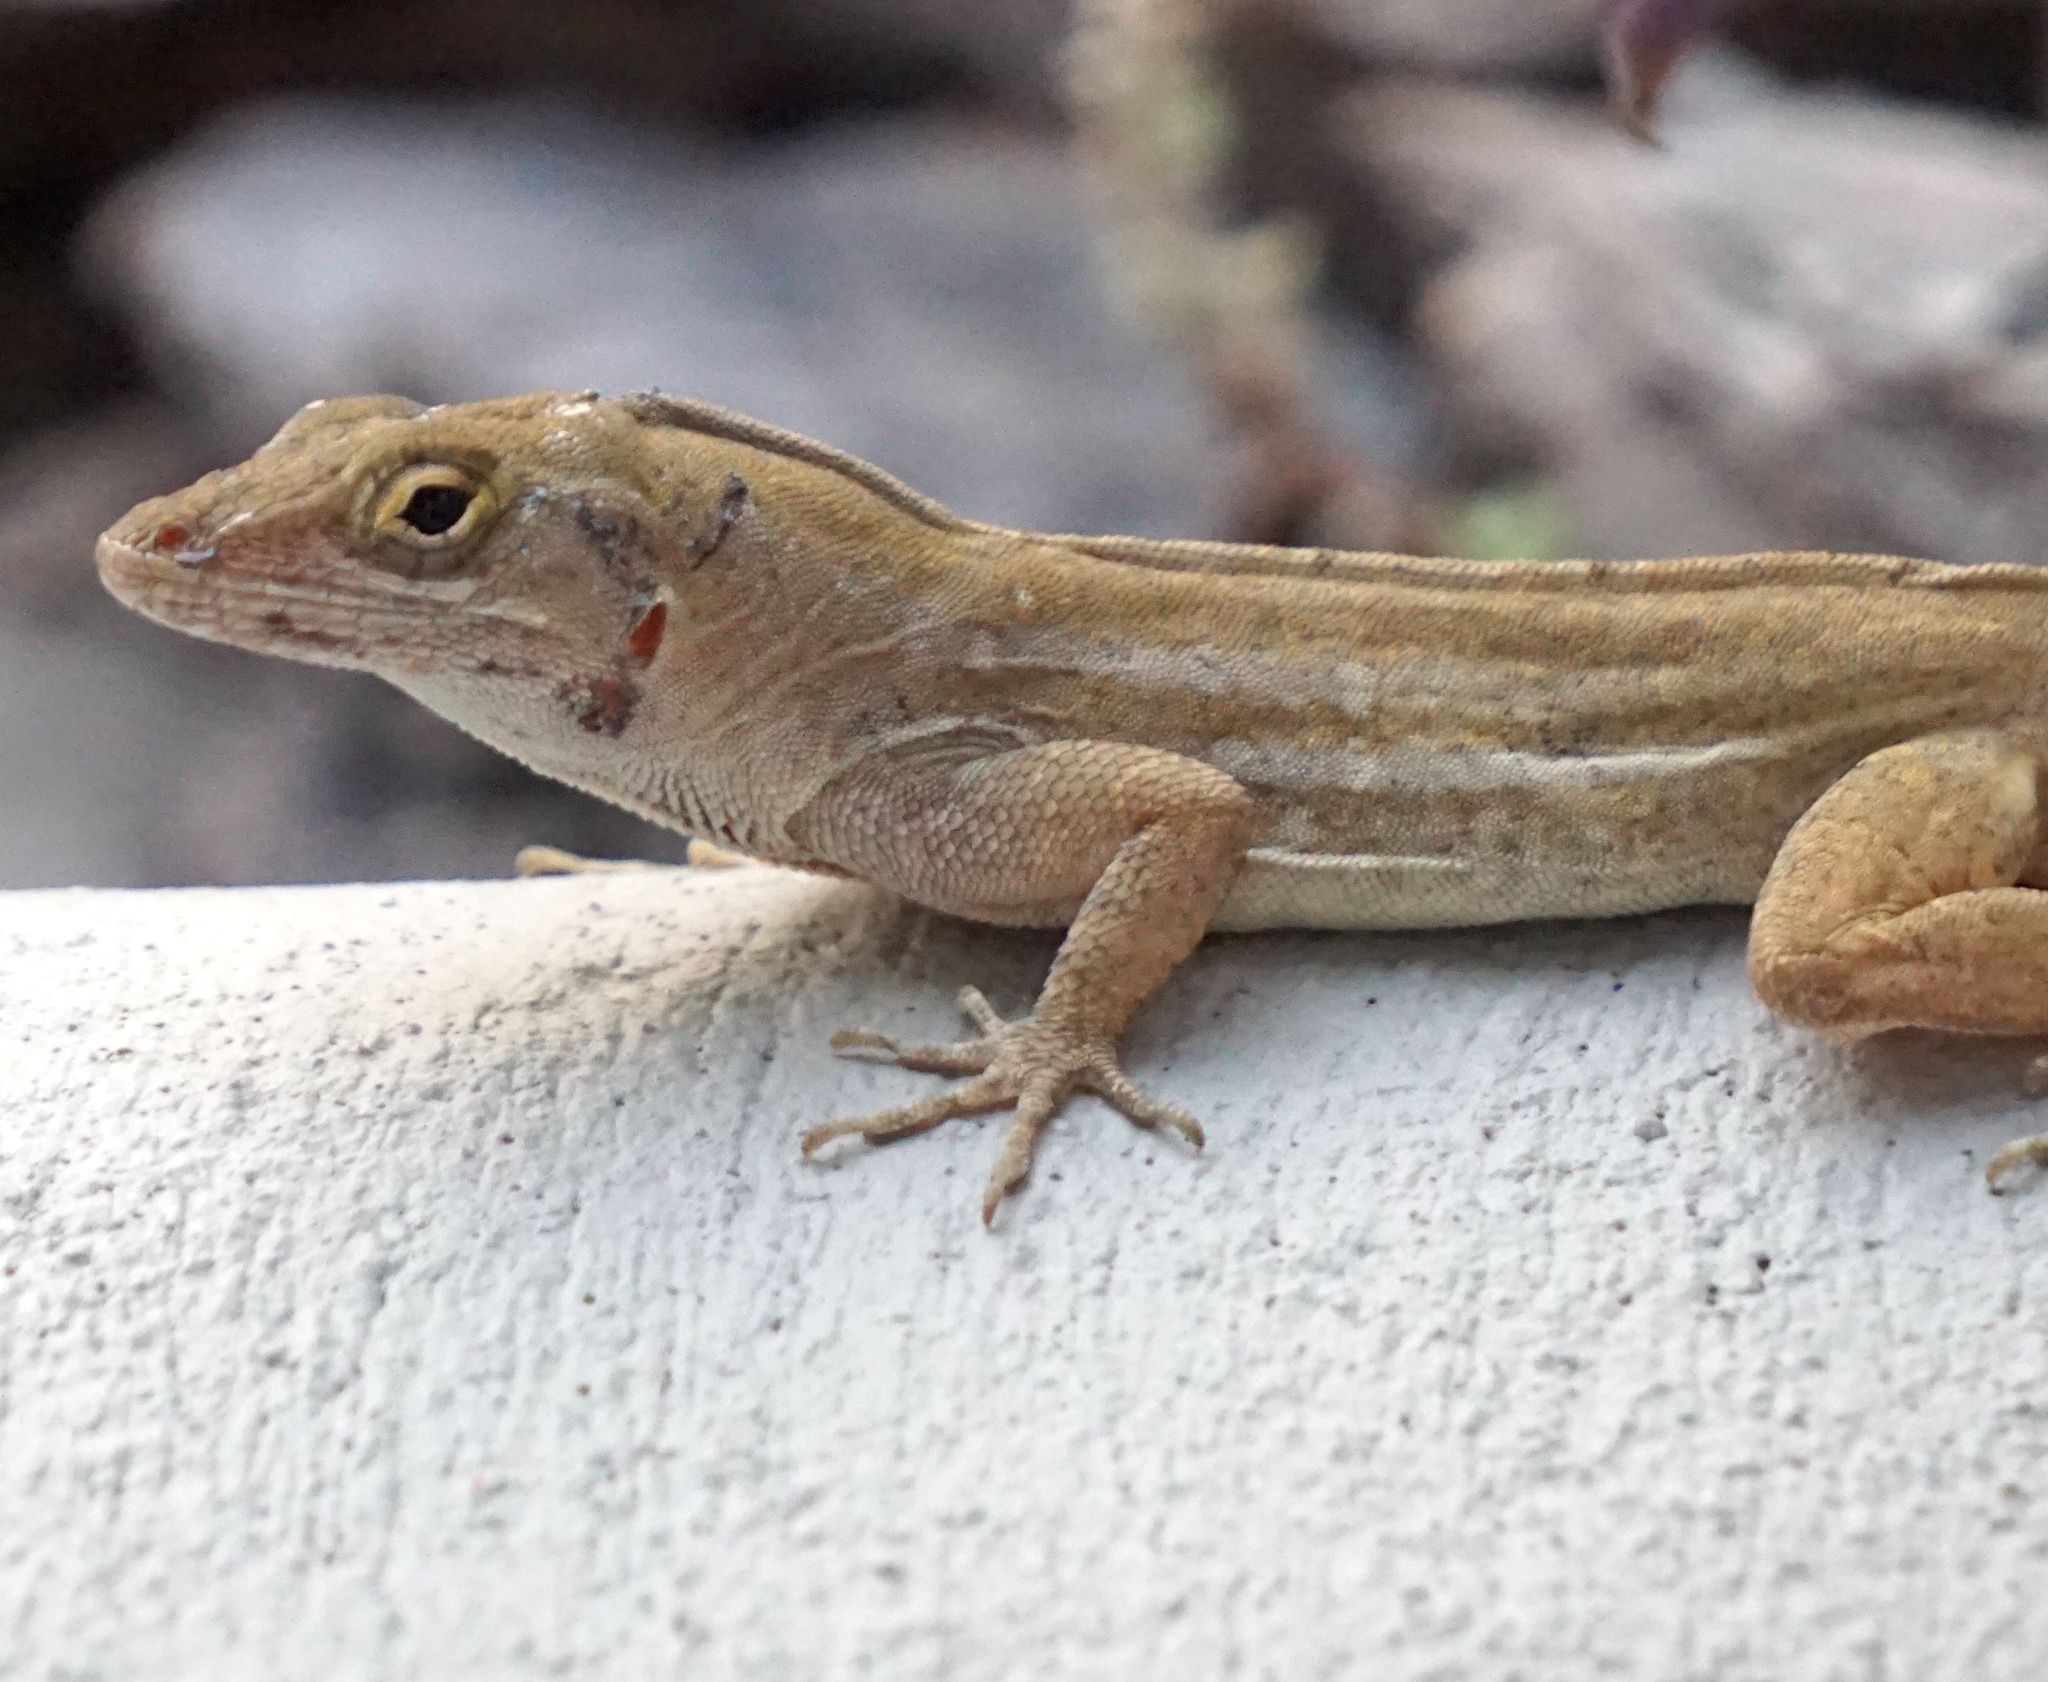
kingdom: Animalia
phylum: Chordata
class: Squamata
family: Dactyloidae
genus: Anolis
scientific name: Anolis sagrei
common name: Brown anole
